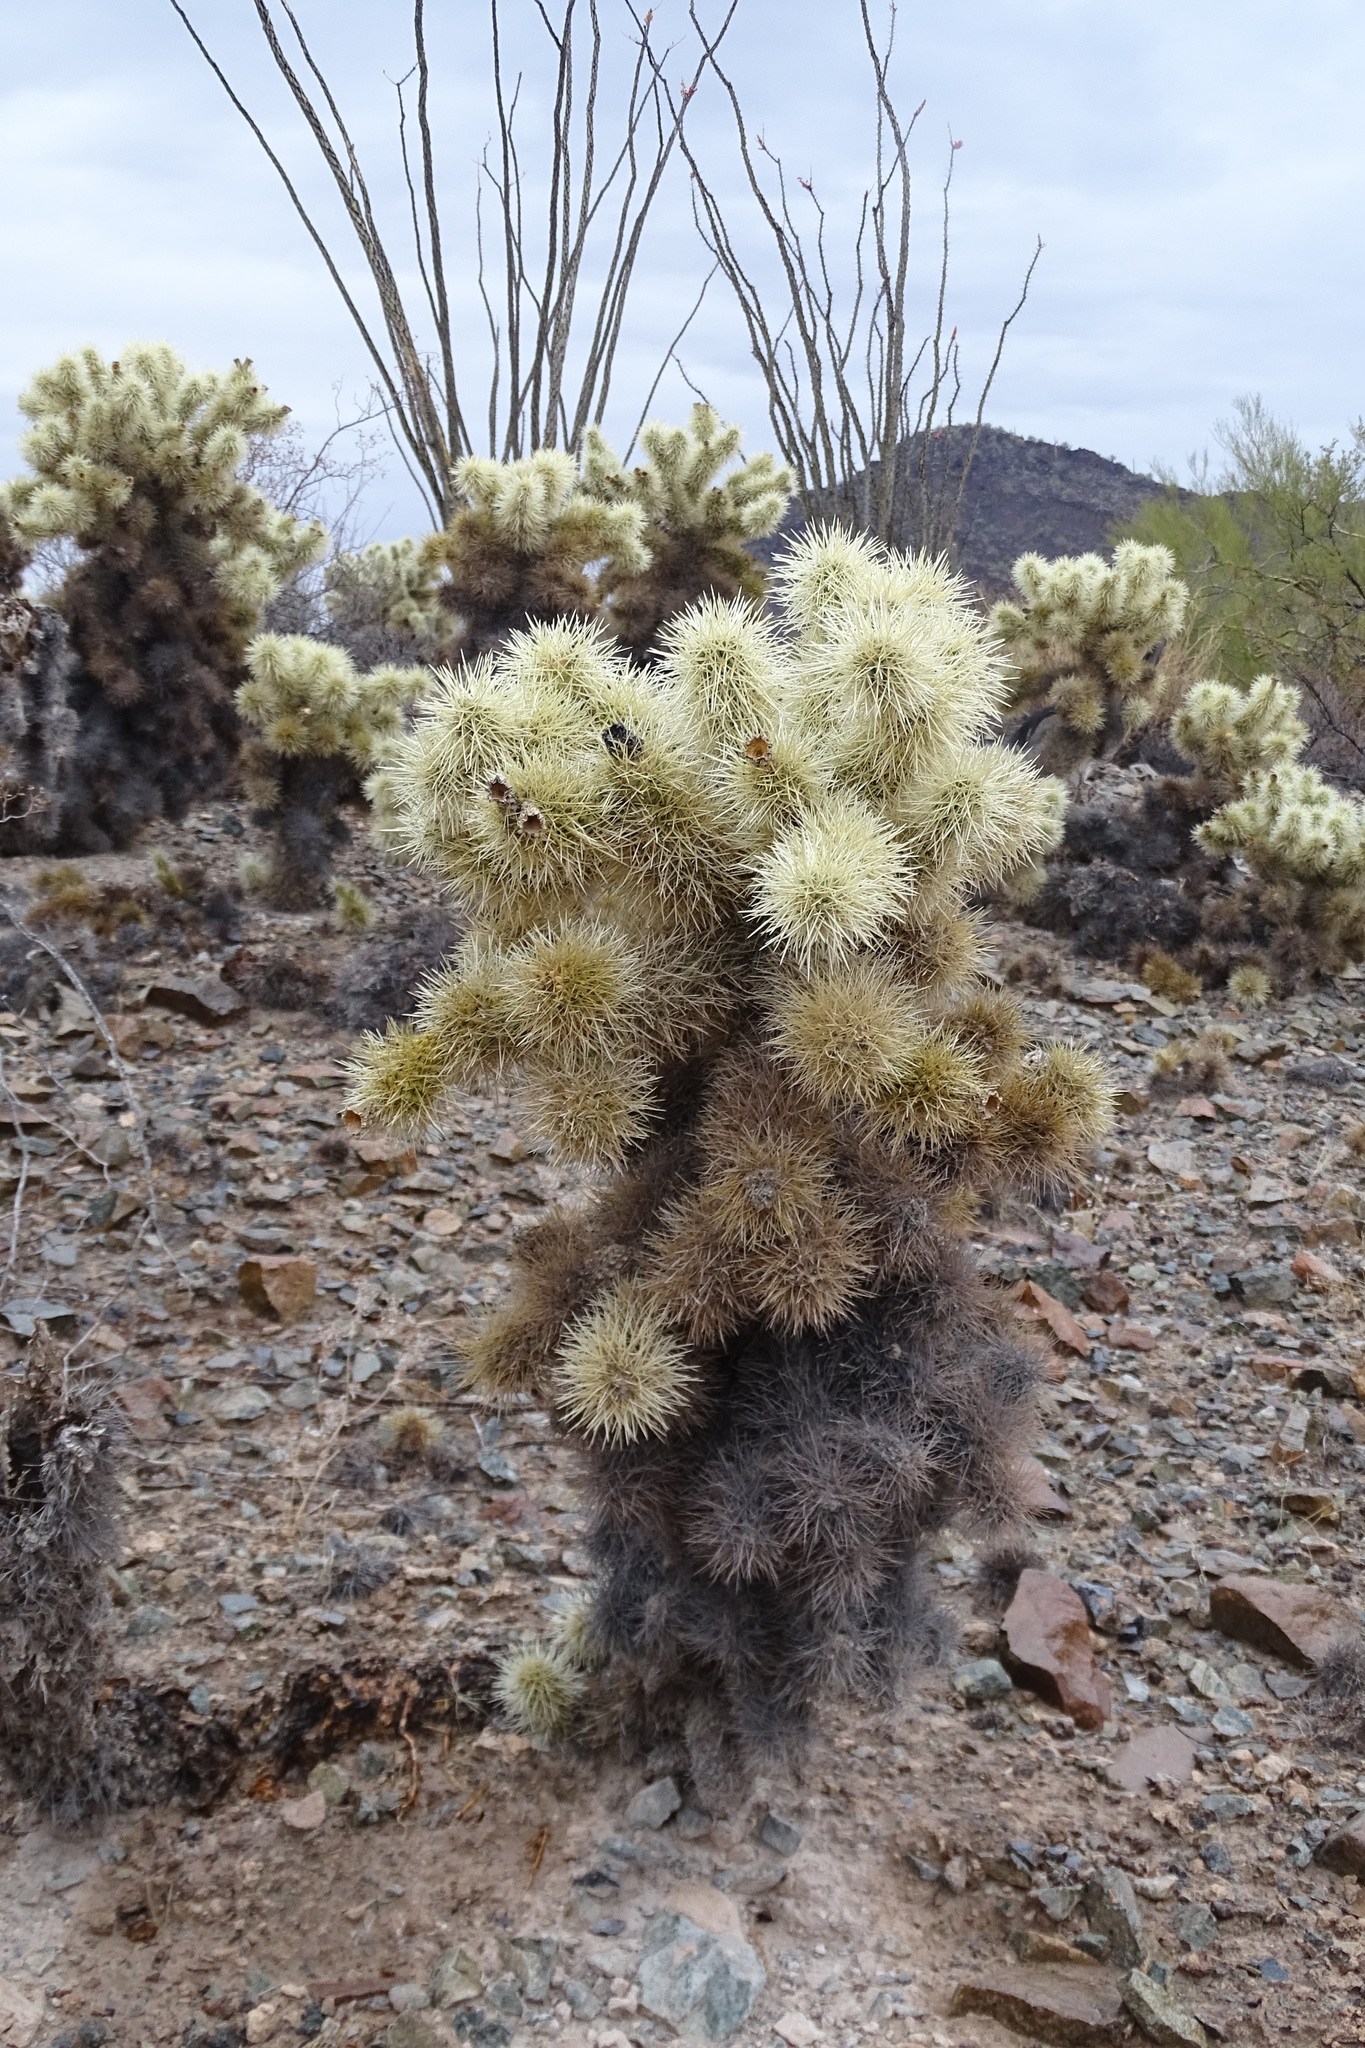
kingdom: Plantae
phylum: Tracheophyta
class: Magnoliopsida
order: Caryophyllales
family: Cactaceae
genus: Cylindropuntia
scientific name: Cylindropuntia fosbergii
